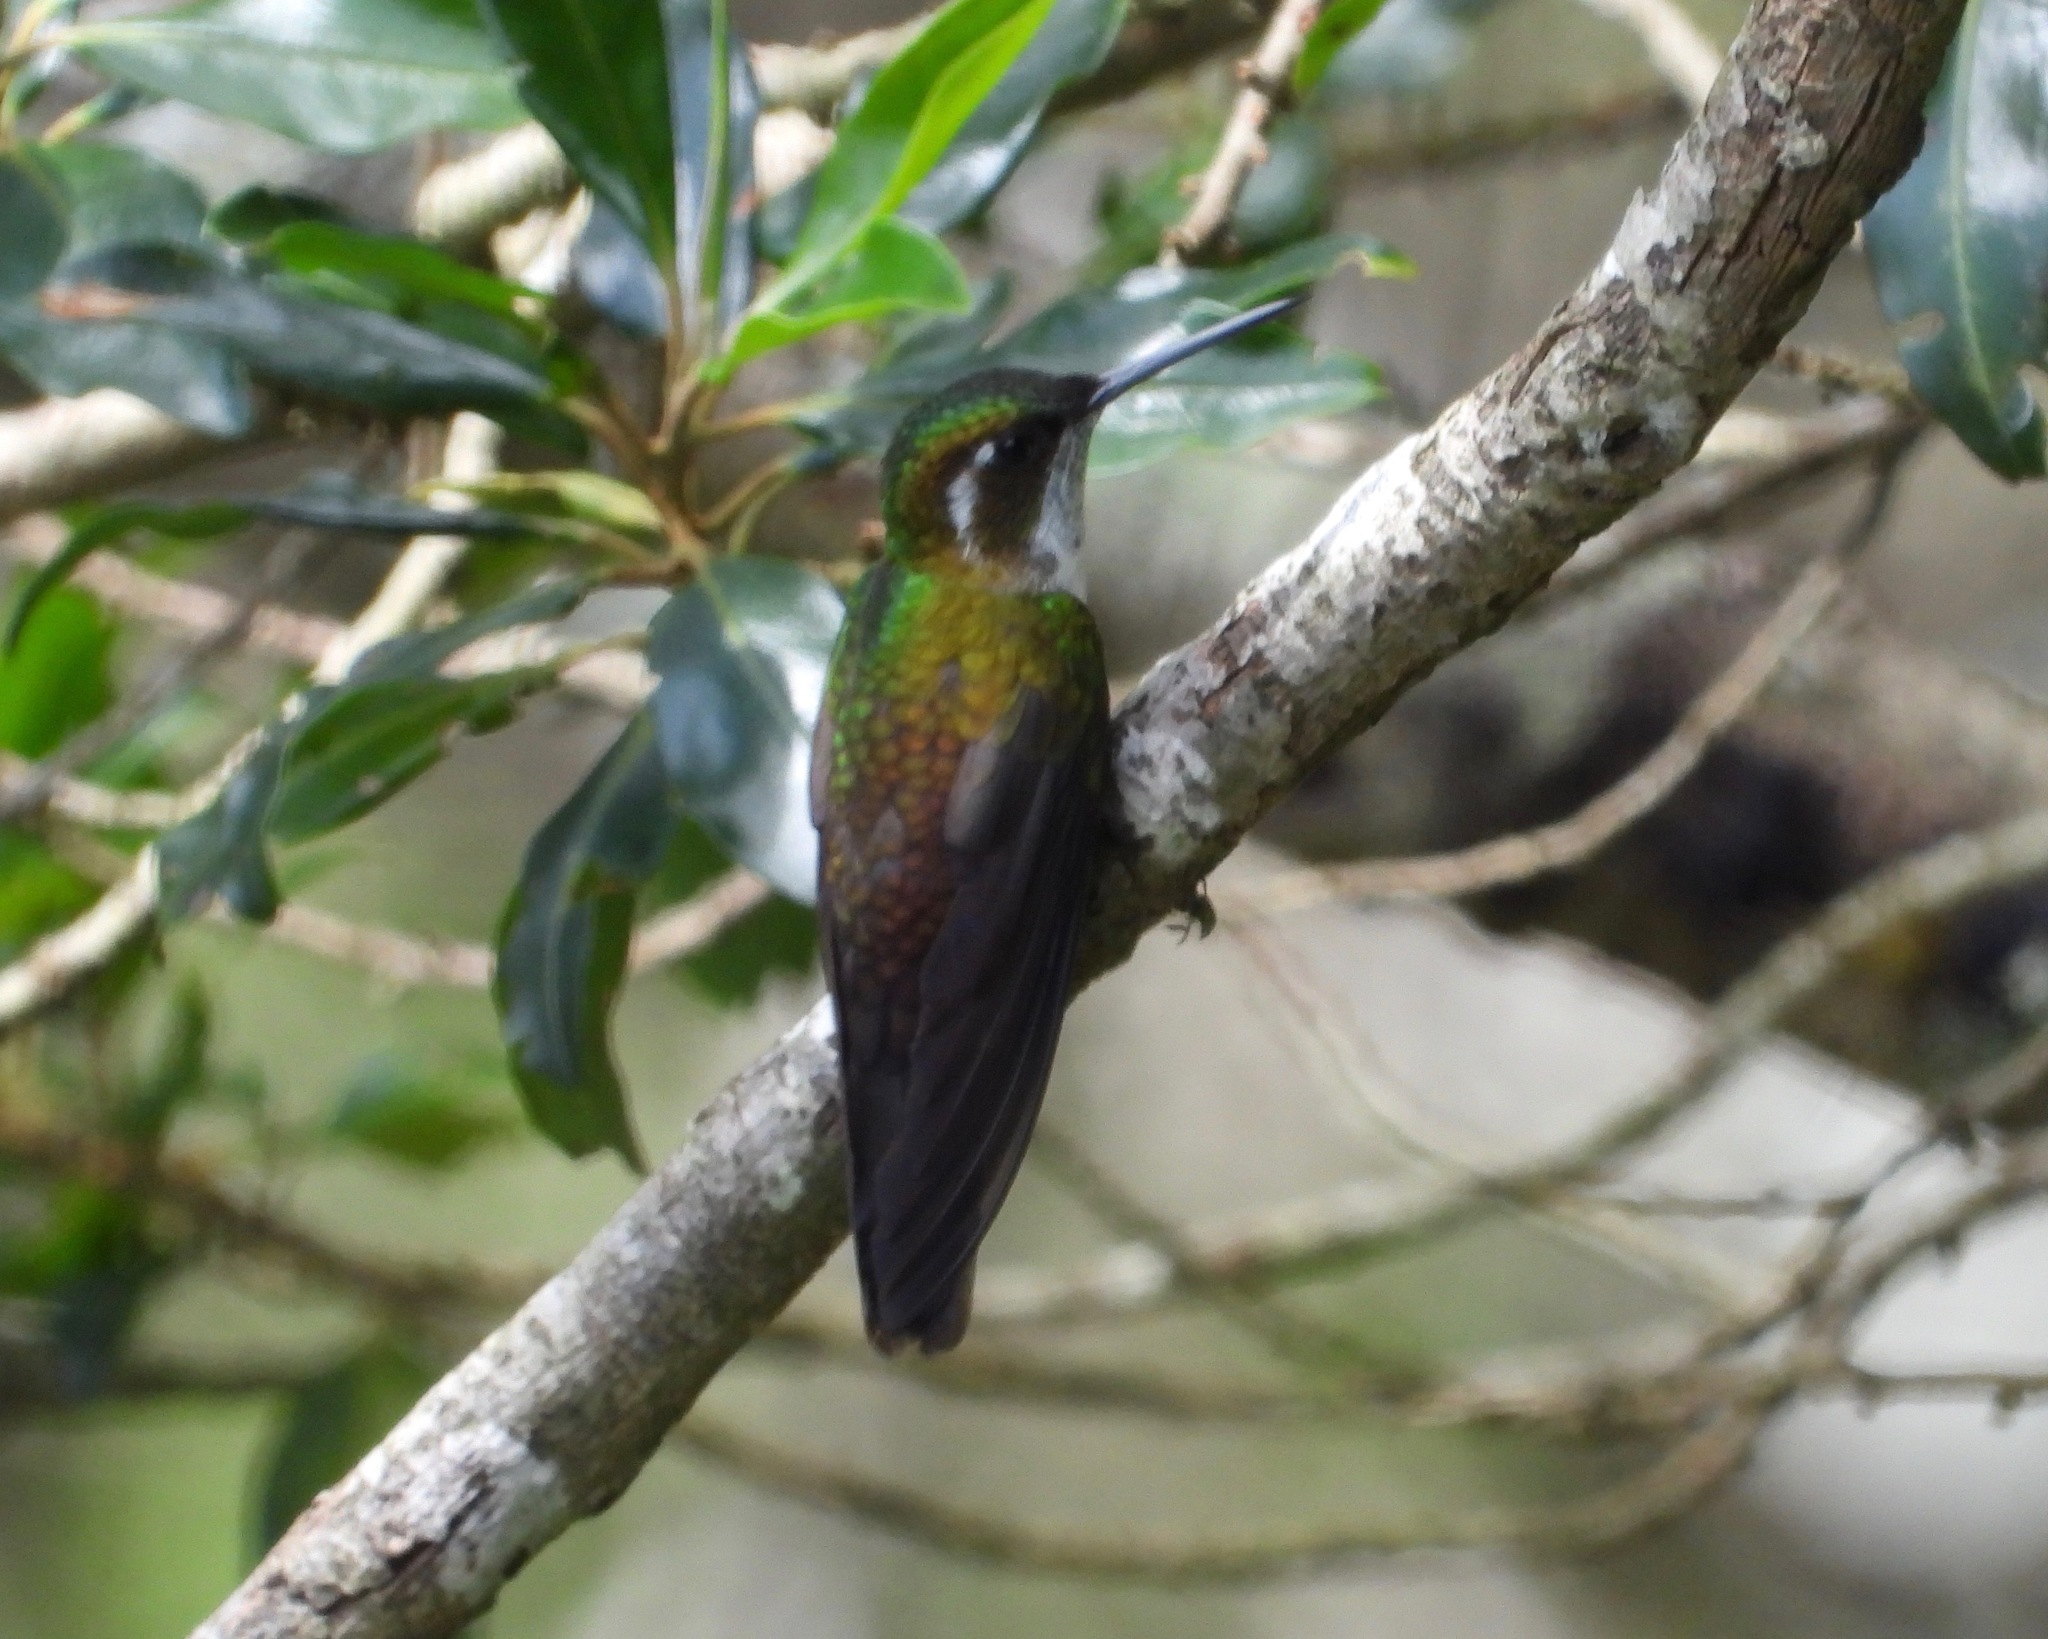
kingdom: Animalia
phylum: Chordata
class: Aves
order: Apodiformes
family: Trochilidae
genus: Lampornis
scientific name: Lampornis viridipallens
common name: Green-throated mountain-gem
